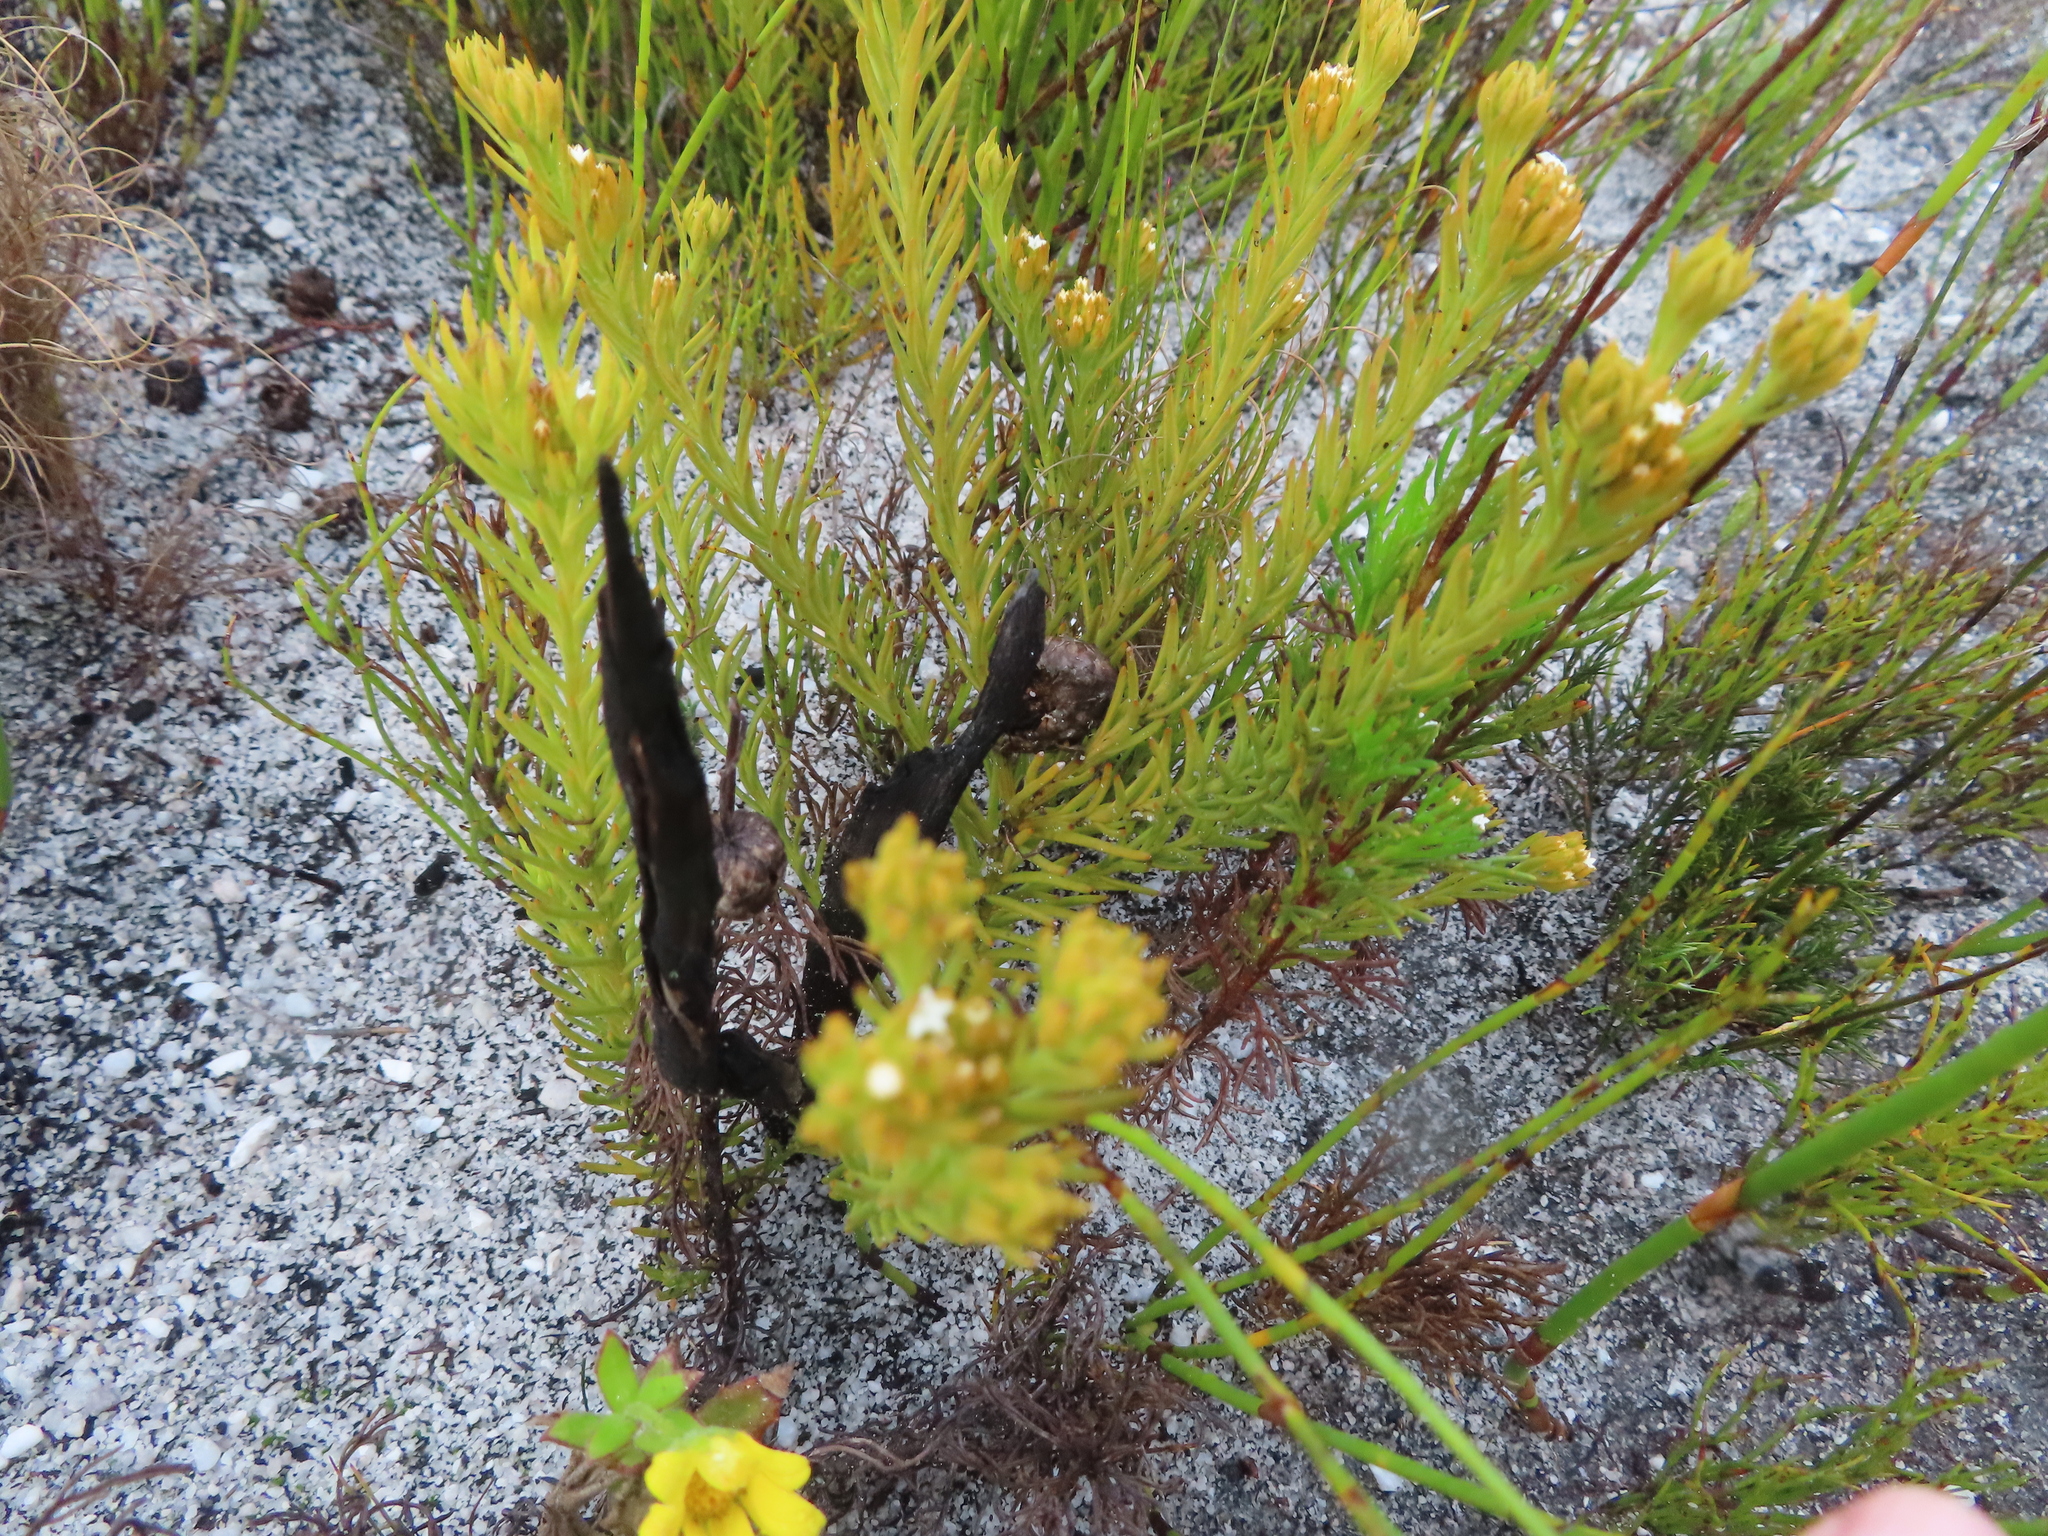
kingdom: Plantae
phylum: Tracheophyta
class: Magnoliopsida
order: Santalales
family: Thesiaceae
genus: Thesium
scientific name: Thesium capitatum
